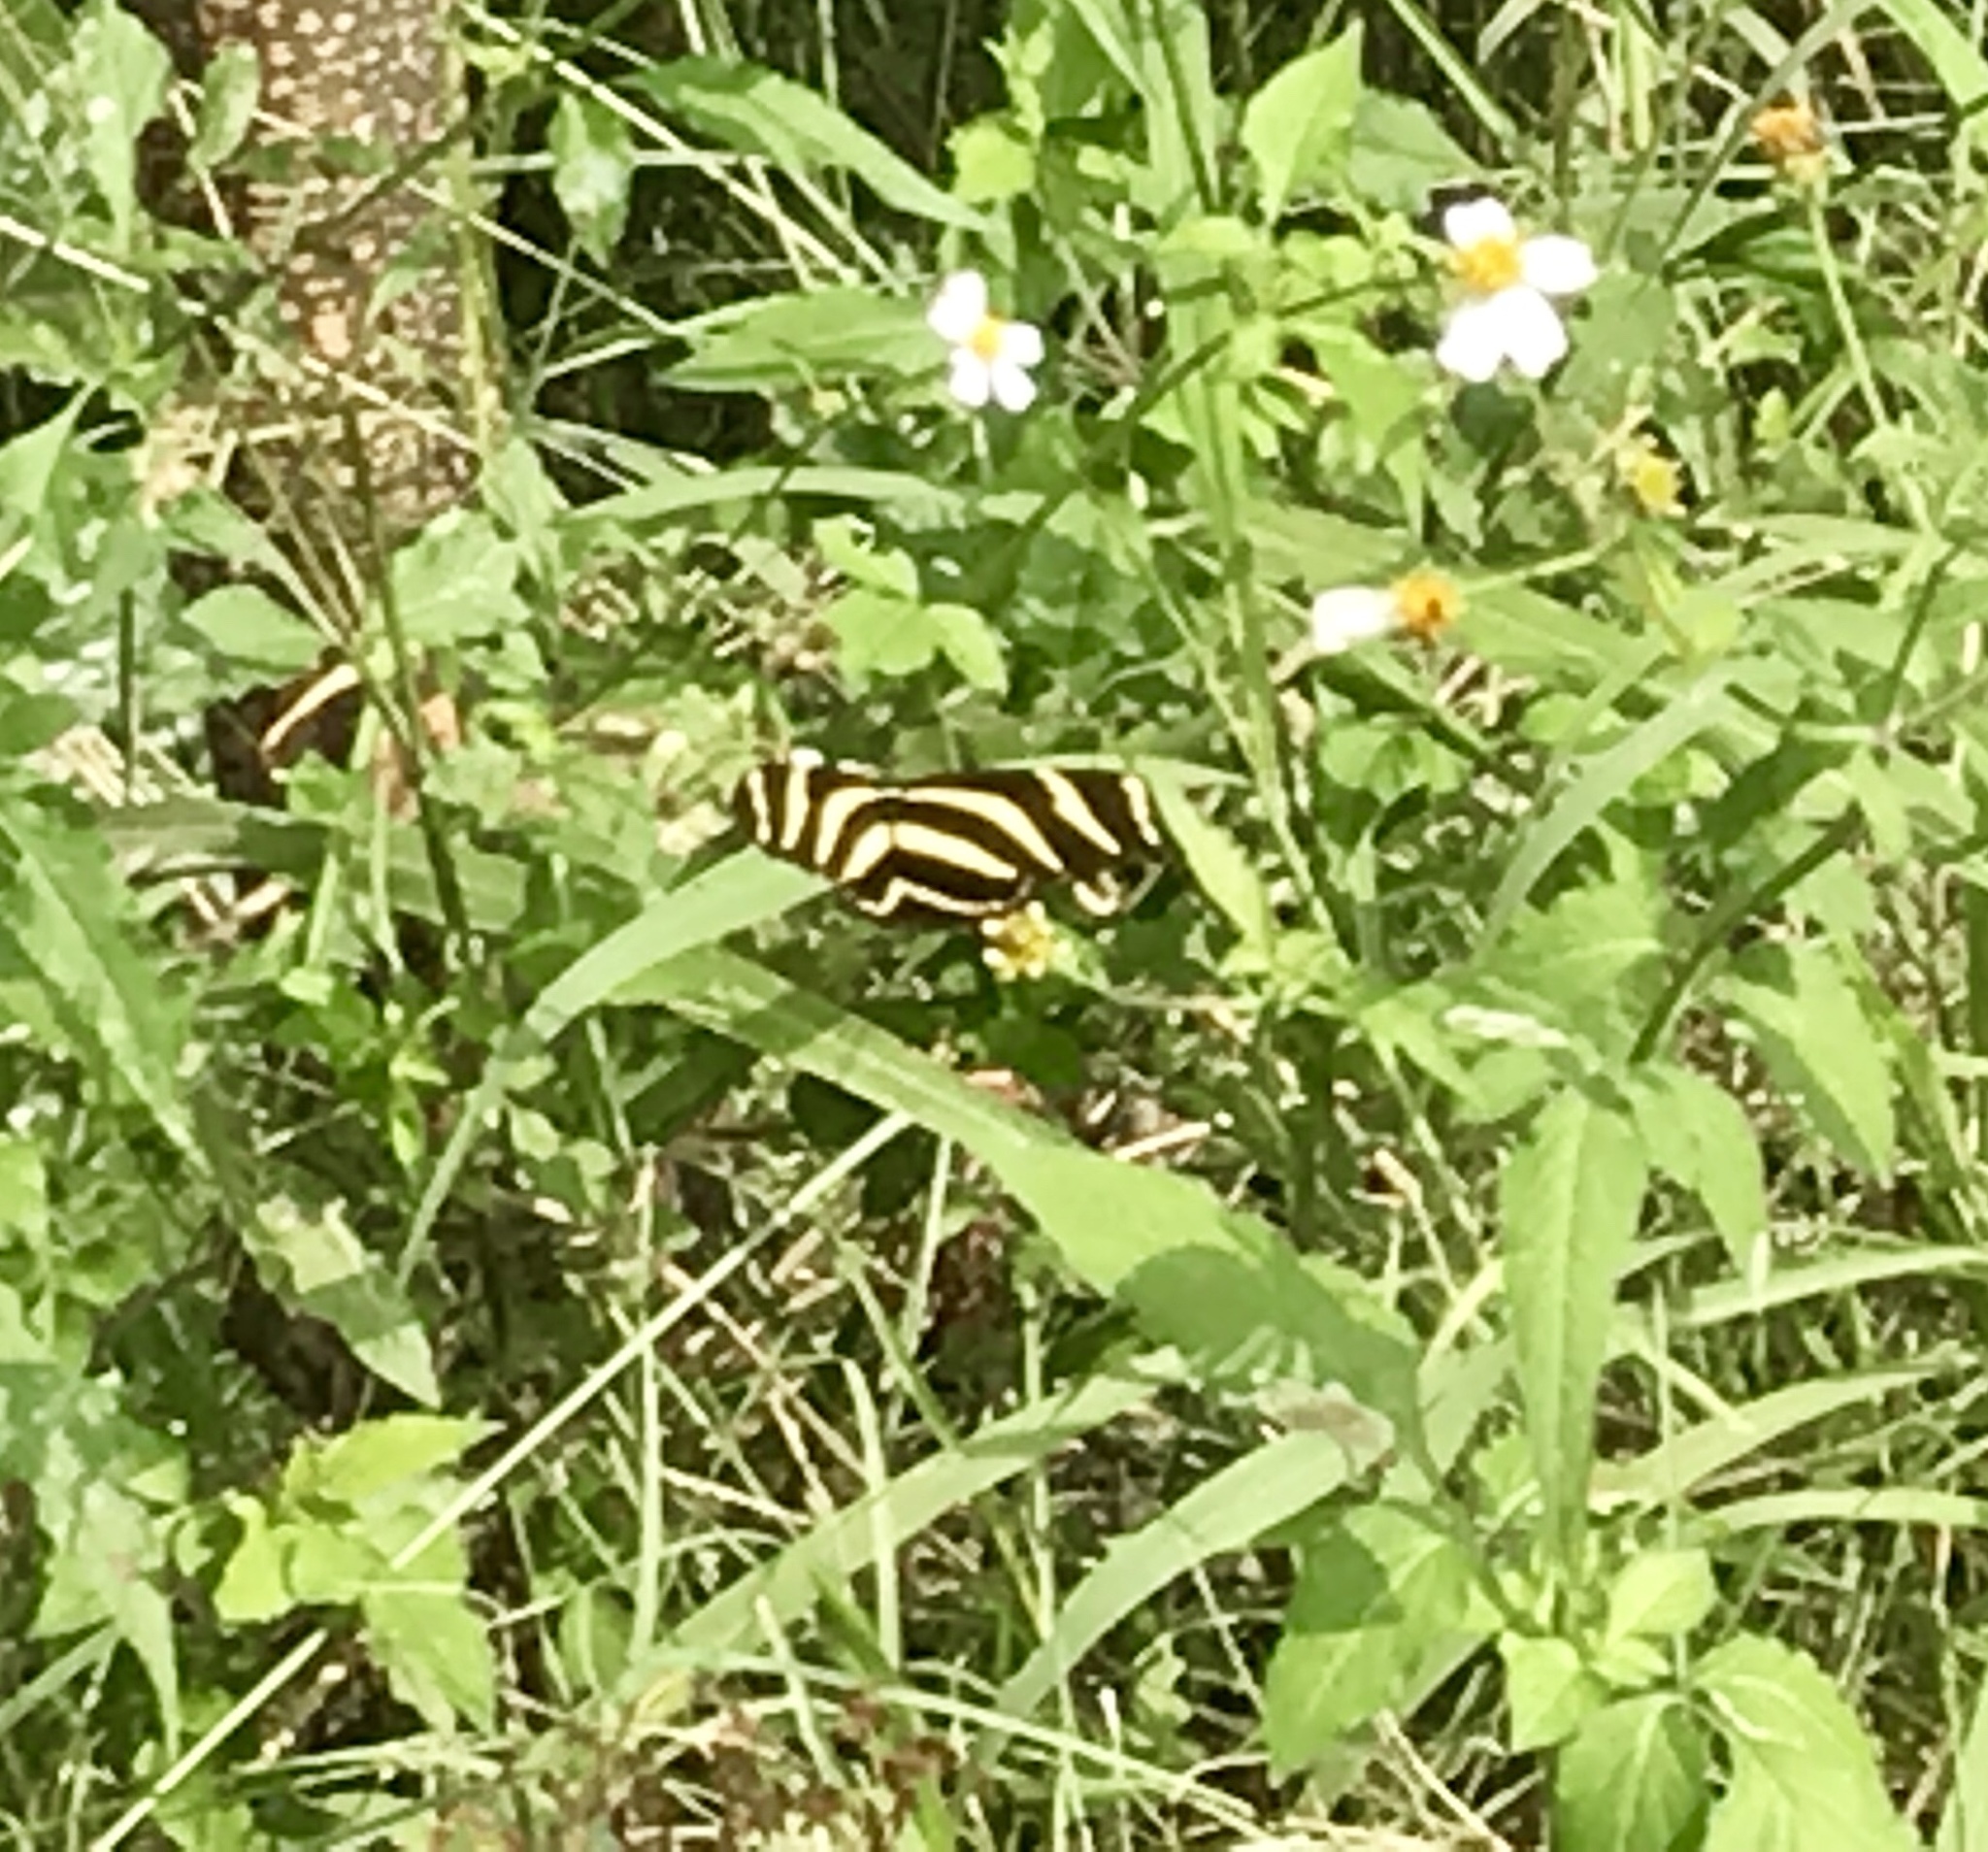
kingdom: Animalia
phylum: Arthropoda
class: Insecta
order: Lepidoptera
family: Nymphalidae
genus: Heliconius
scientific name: Heliconius charithonia
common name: Zebra long wing
